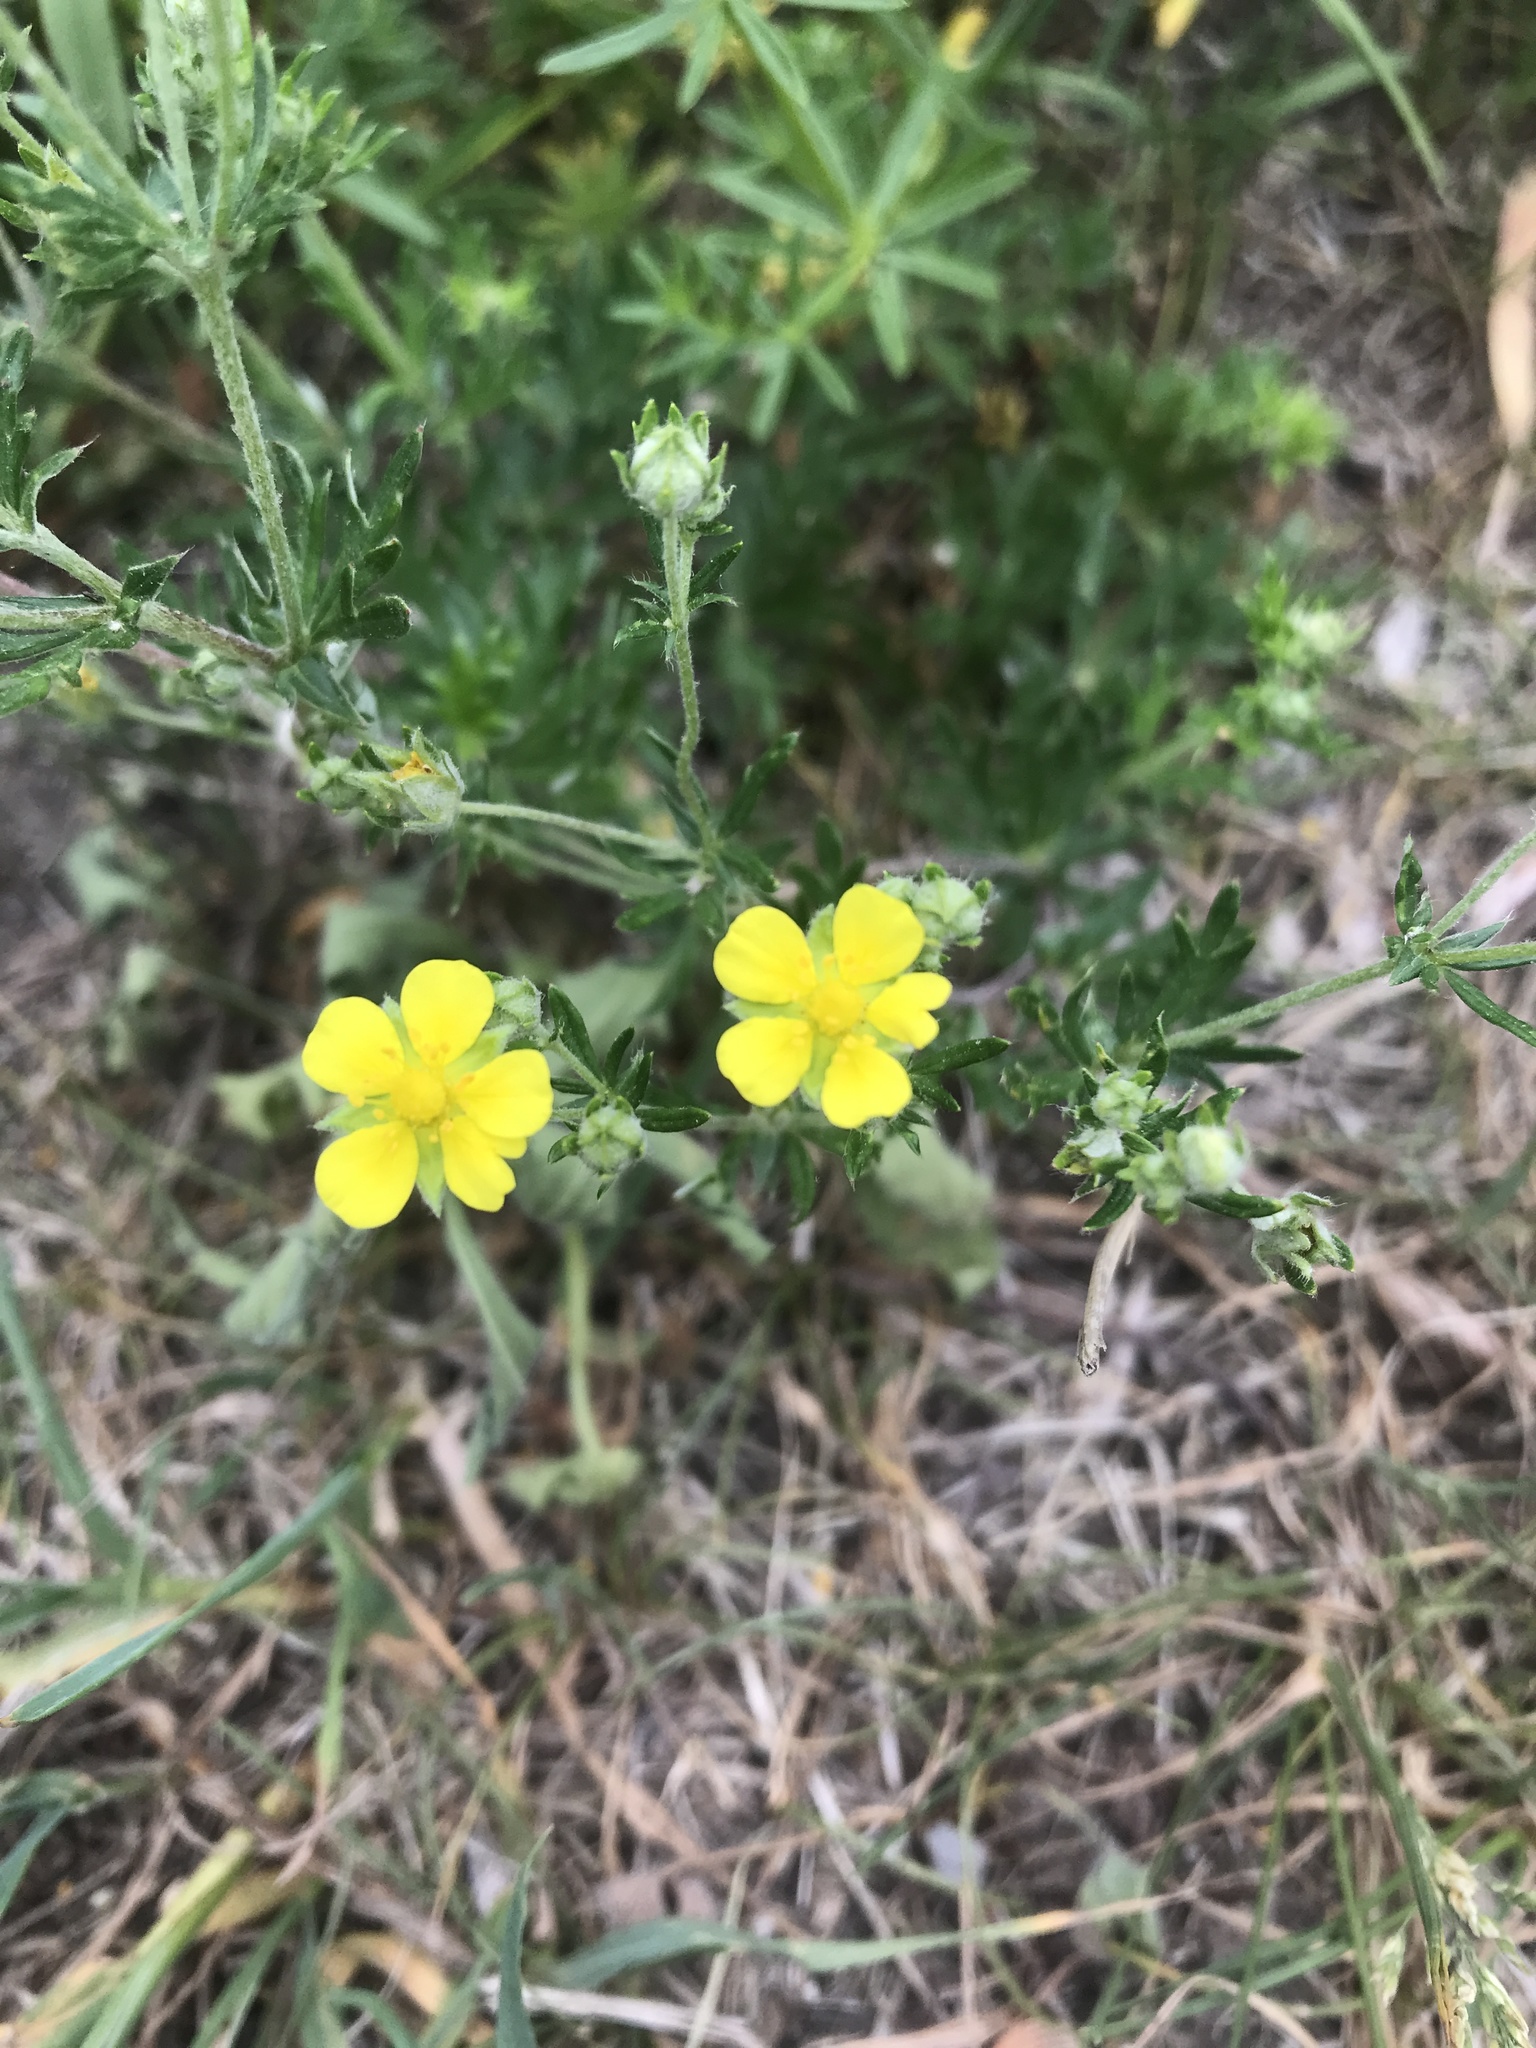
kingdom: Plantae
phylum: Tracheophyta
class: Magnoliopsida
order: Rosales
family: Rosaceae
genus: Potentilla
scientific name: Potentilla argentea
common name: Hoary cinquefoil
